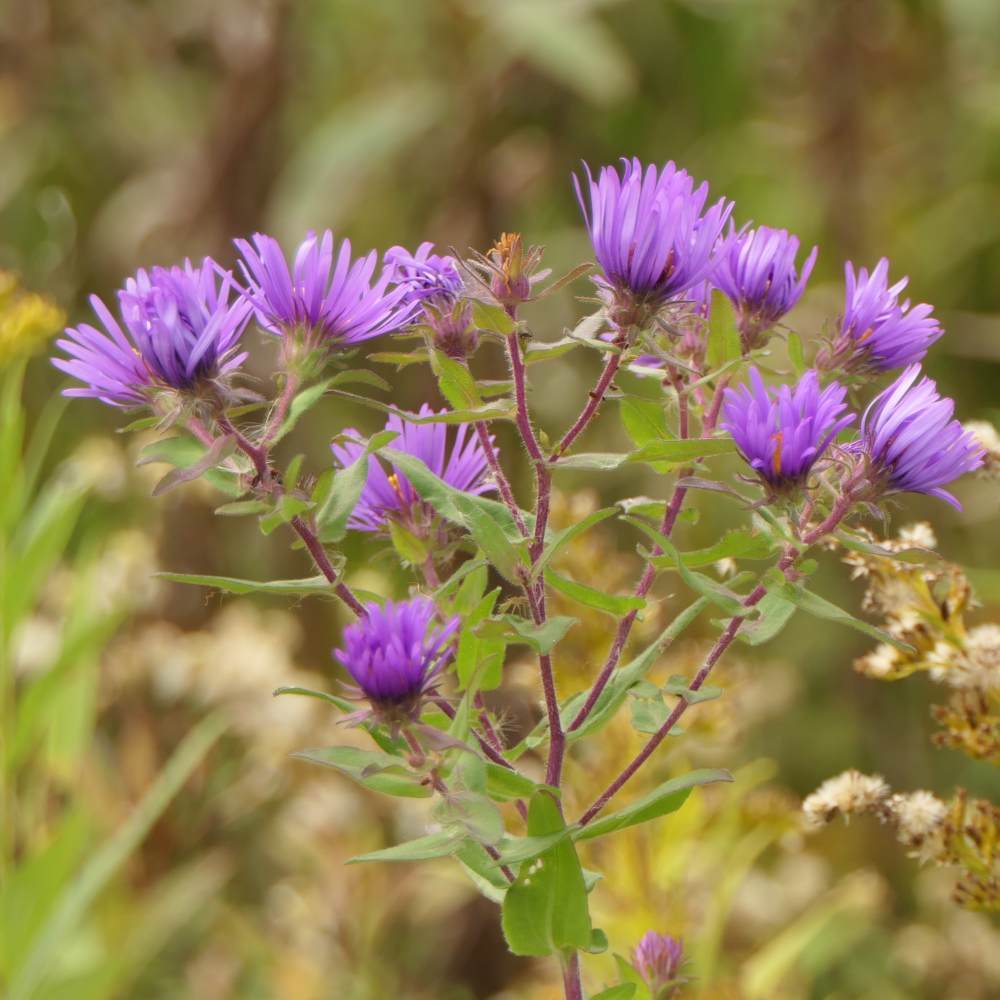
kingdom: Plantae
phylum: Tracheophyta
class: Magnoliopsida
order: Asterales
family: Asteraceae
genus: Symphyotrichum
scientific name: Symphyotrichum novae-angliae
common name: Michaelmas daisy
